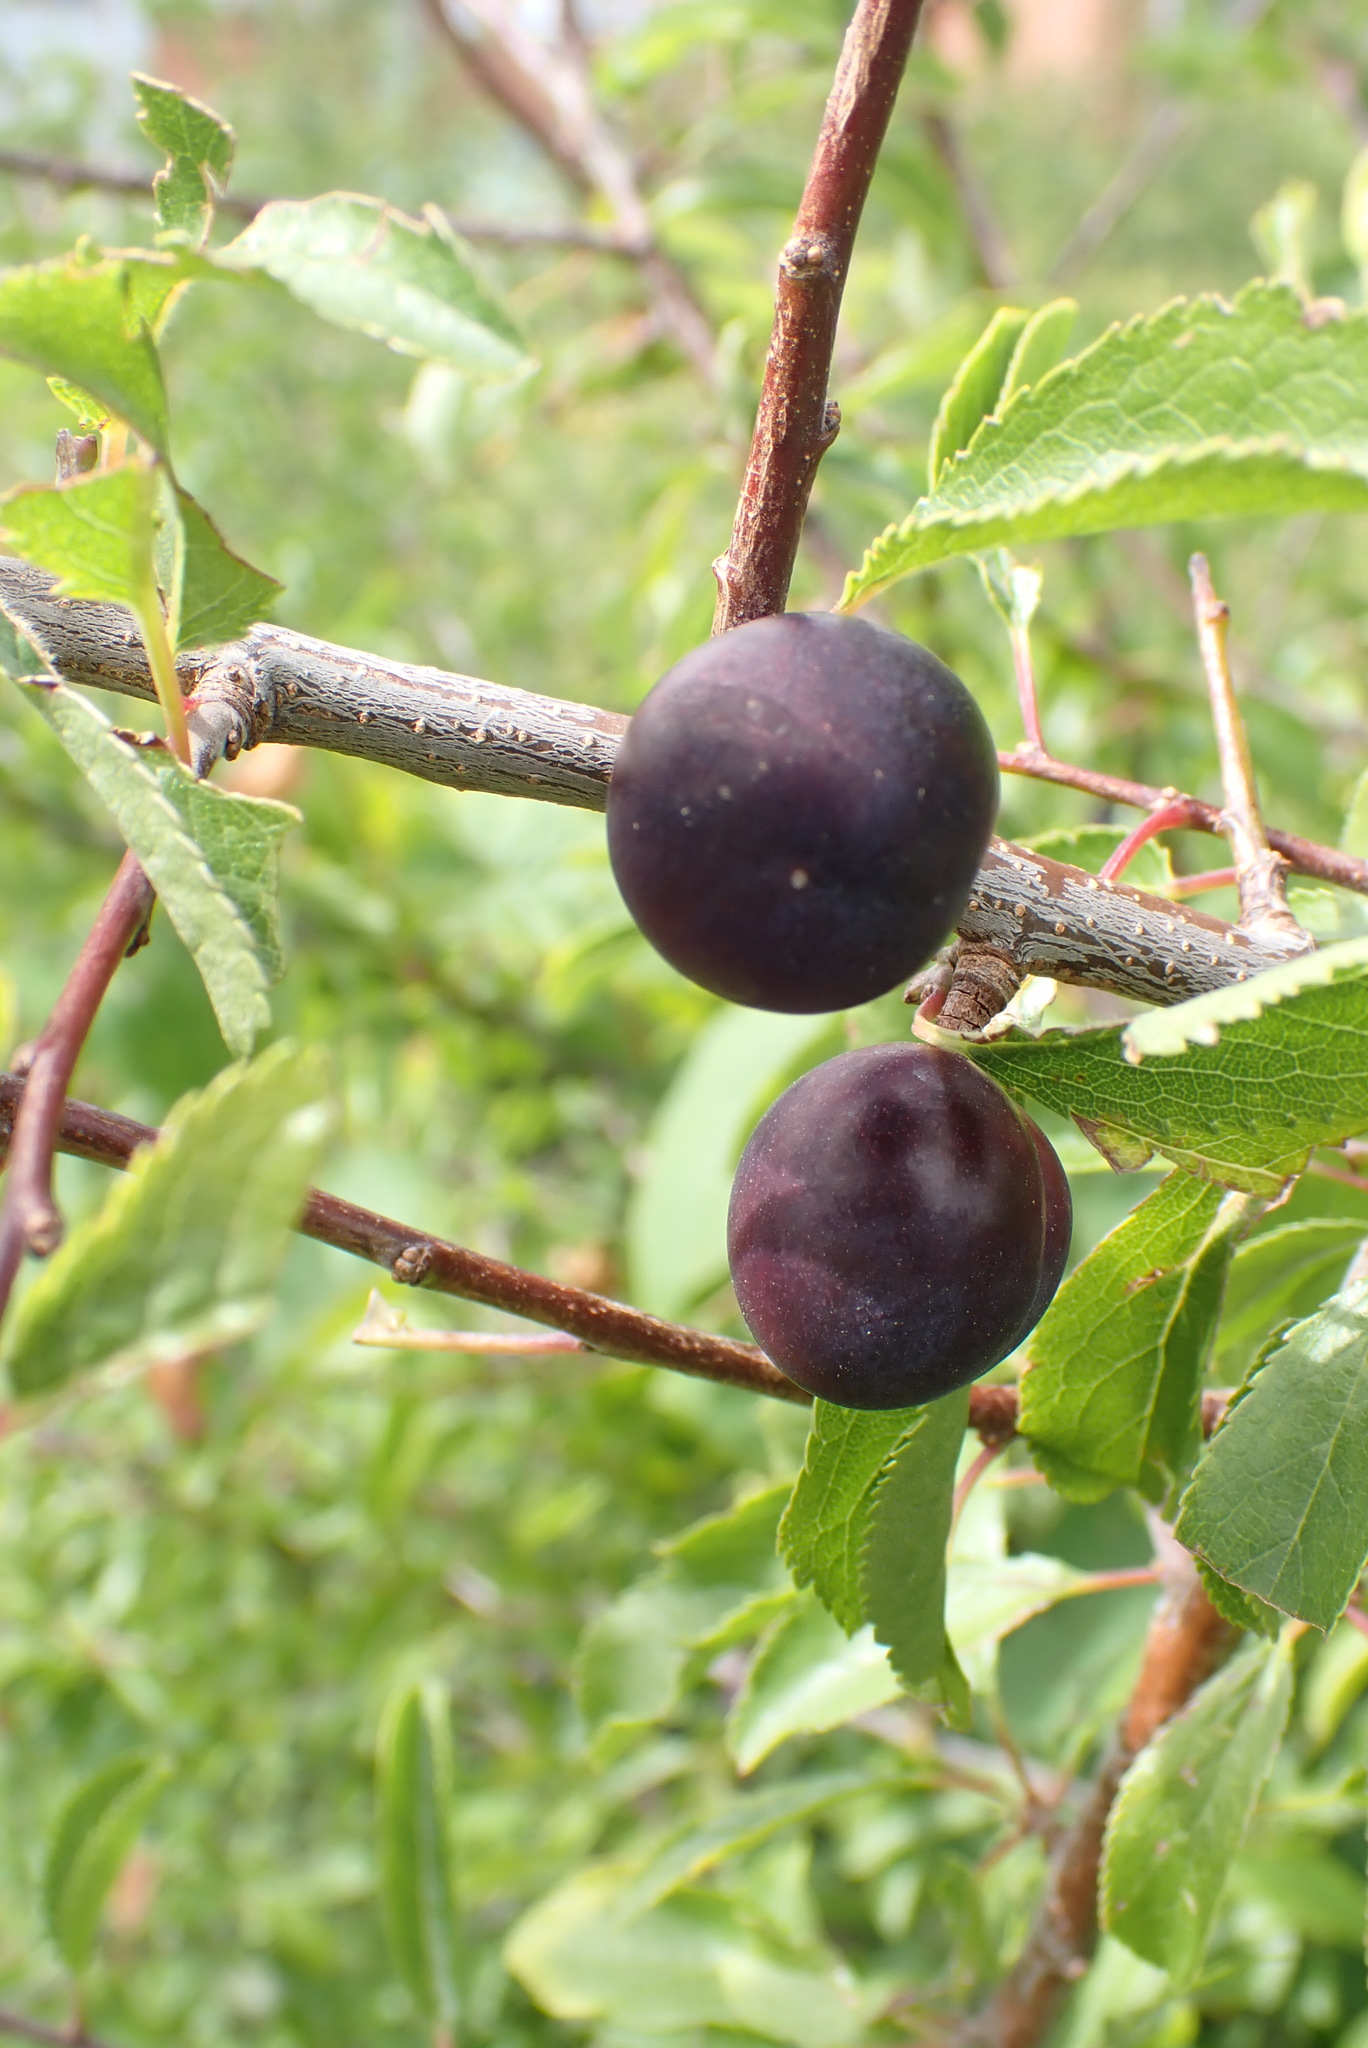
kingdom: Plantae
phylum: Tracheophyta
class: Magnoliopsida
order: Rosales
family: Rosaceae
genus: Prunus
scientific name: Prunus spinosa
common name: Blackthorn
